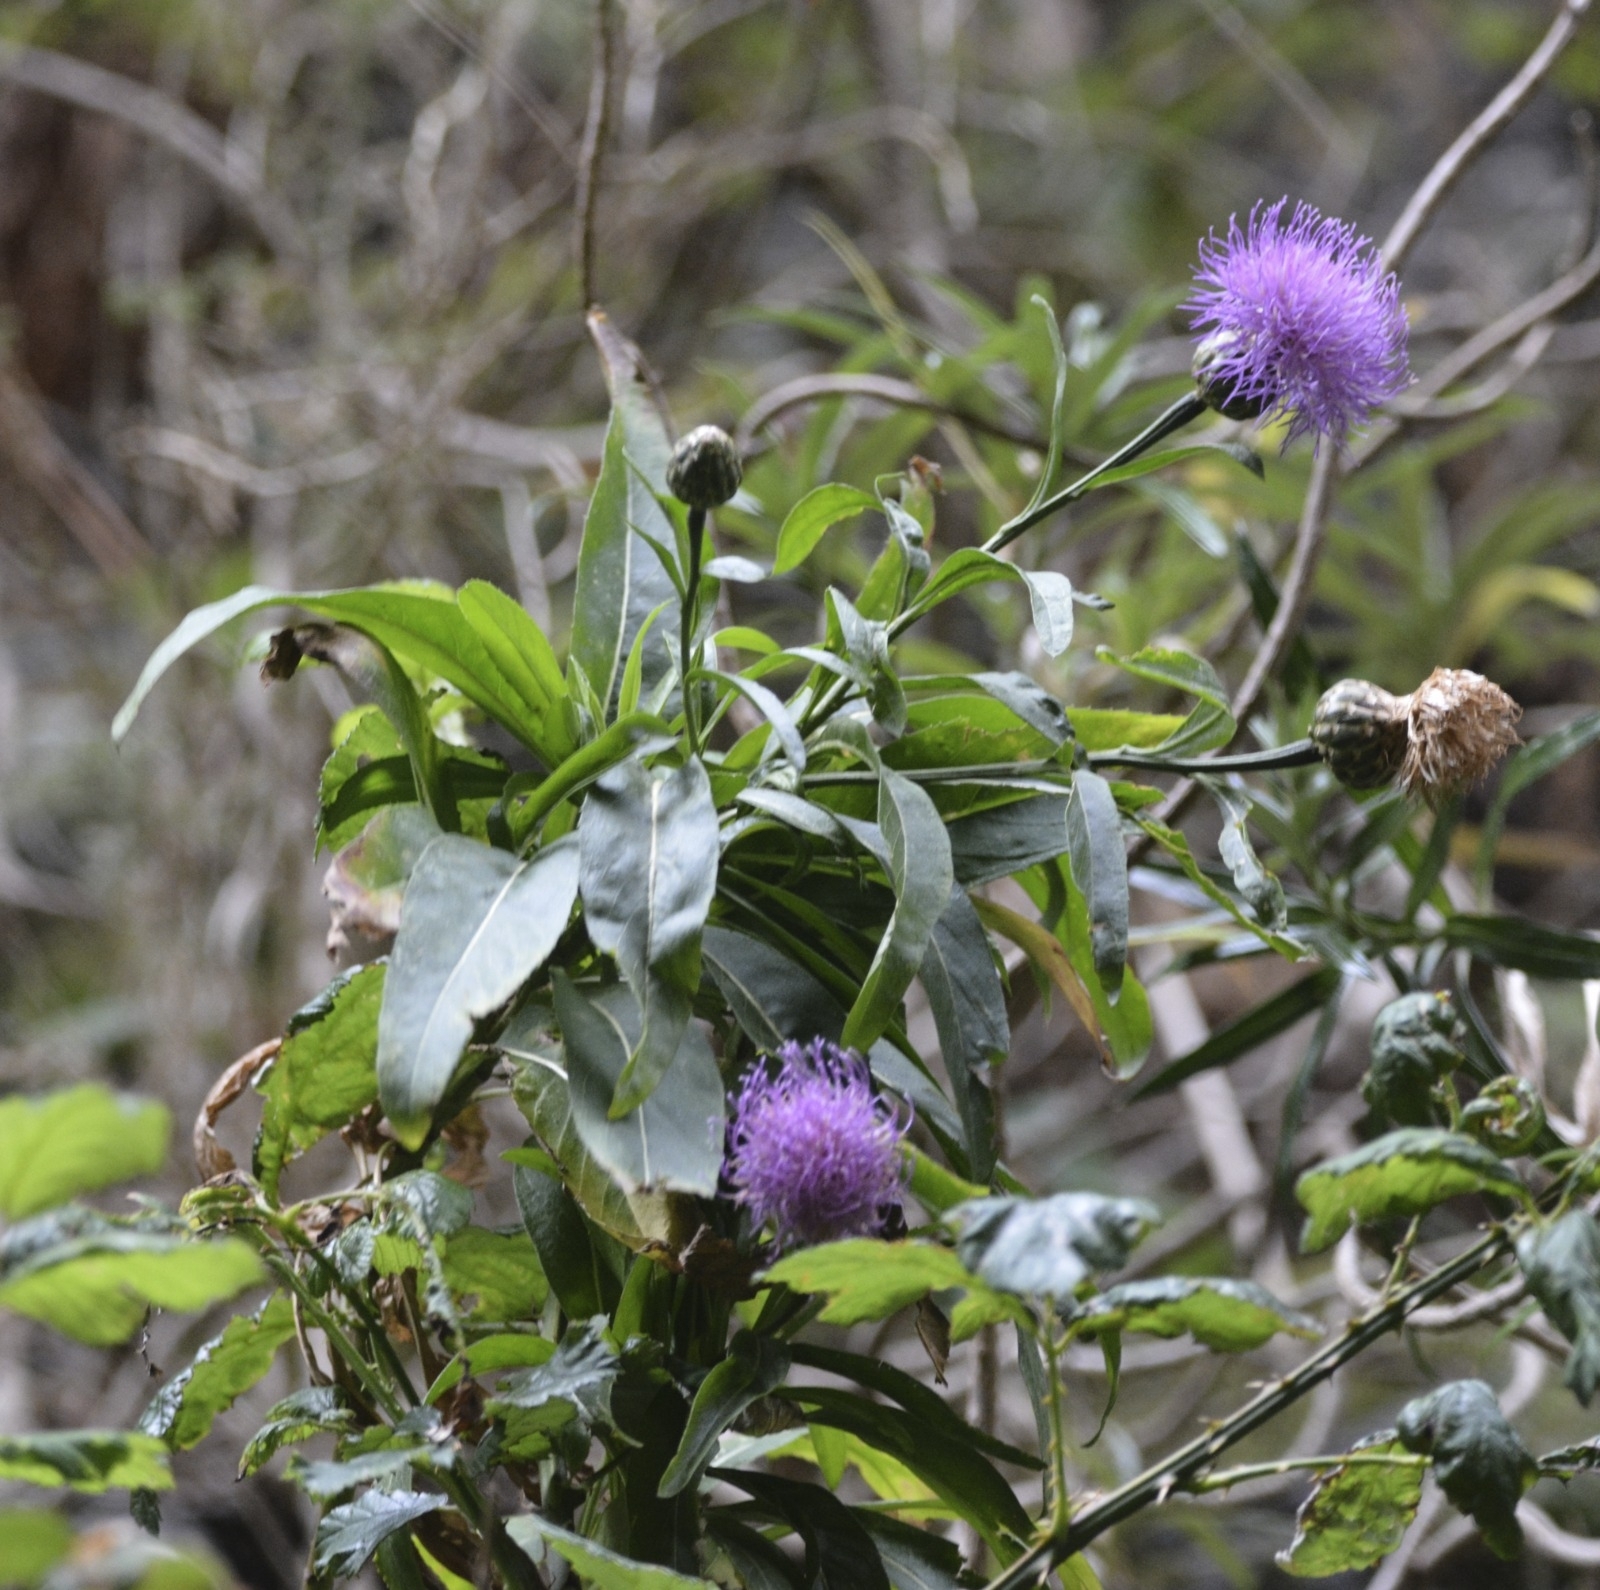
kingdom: Plantae
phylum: Tracheophyta
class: Magnoliopsida
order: Asterales
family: Asteraceae
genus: Cheirolophus
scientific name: Cheirolophus metlesicsii
